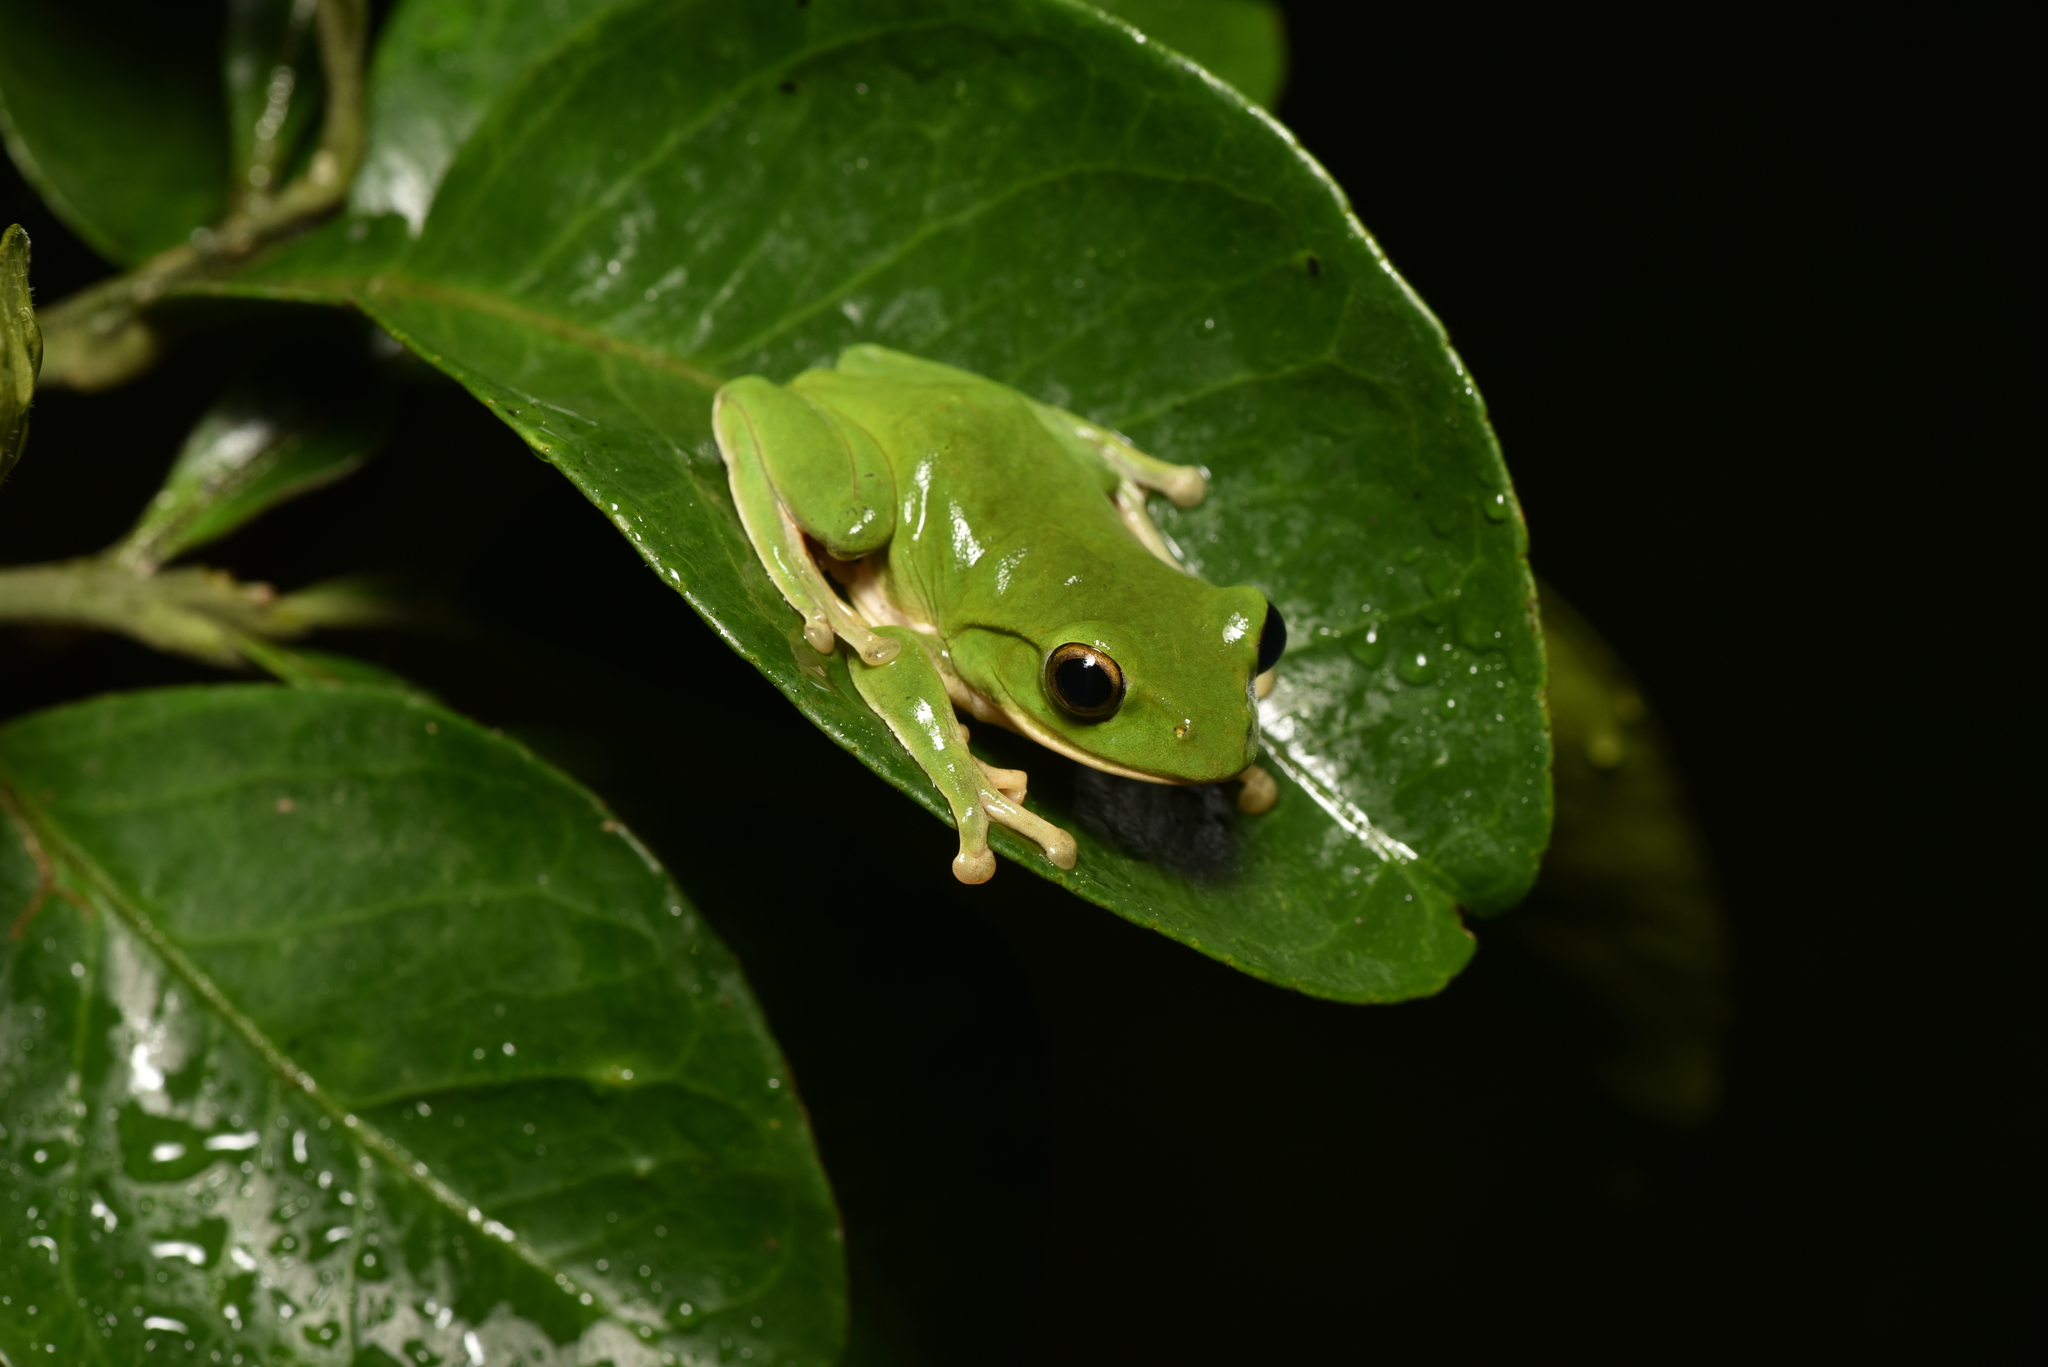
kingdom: Animalia
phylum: Chordata
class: Amphibia
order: Anura
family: Rhacophoridae
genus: Zhangixalus
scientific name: Zhangixalus moltrechti
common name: Moltrecht's treefrog
